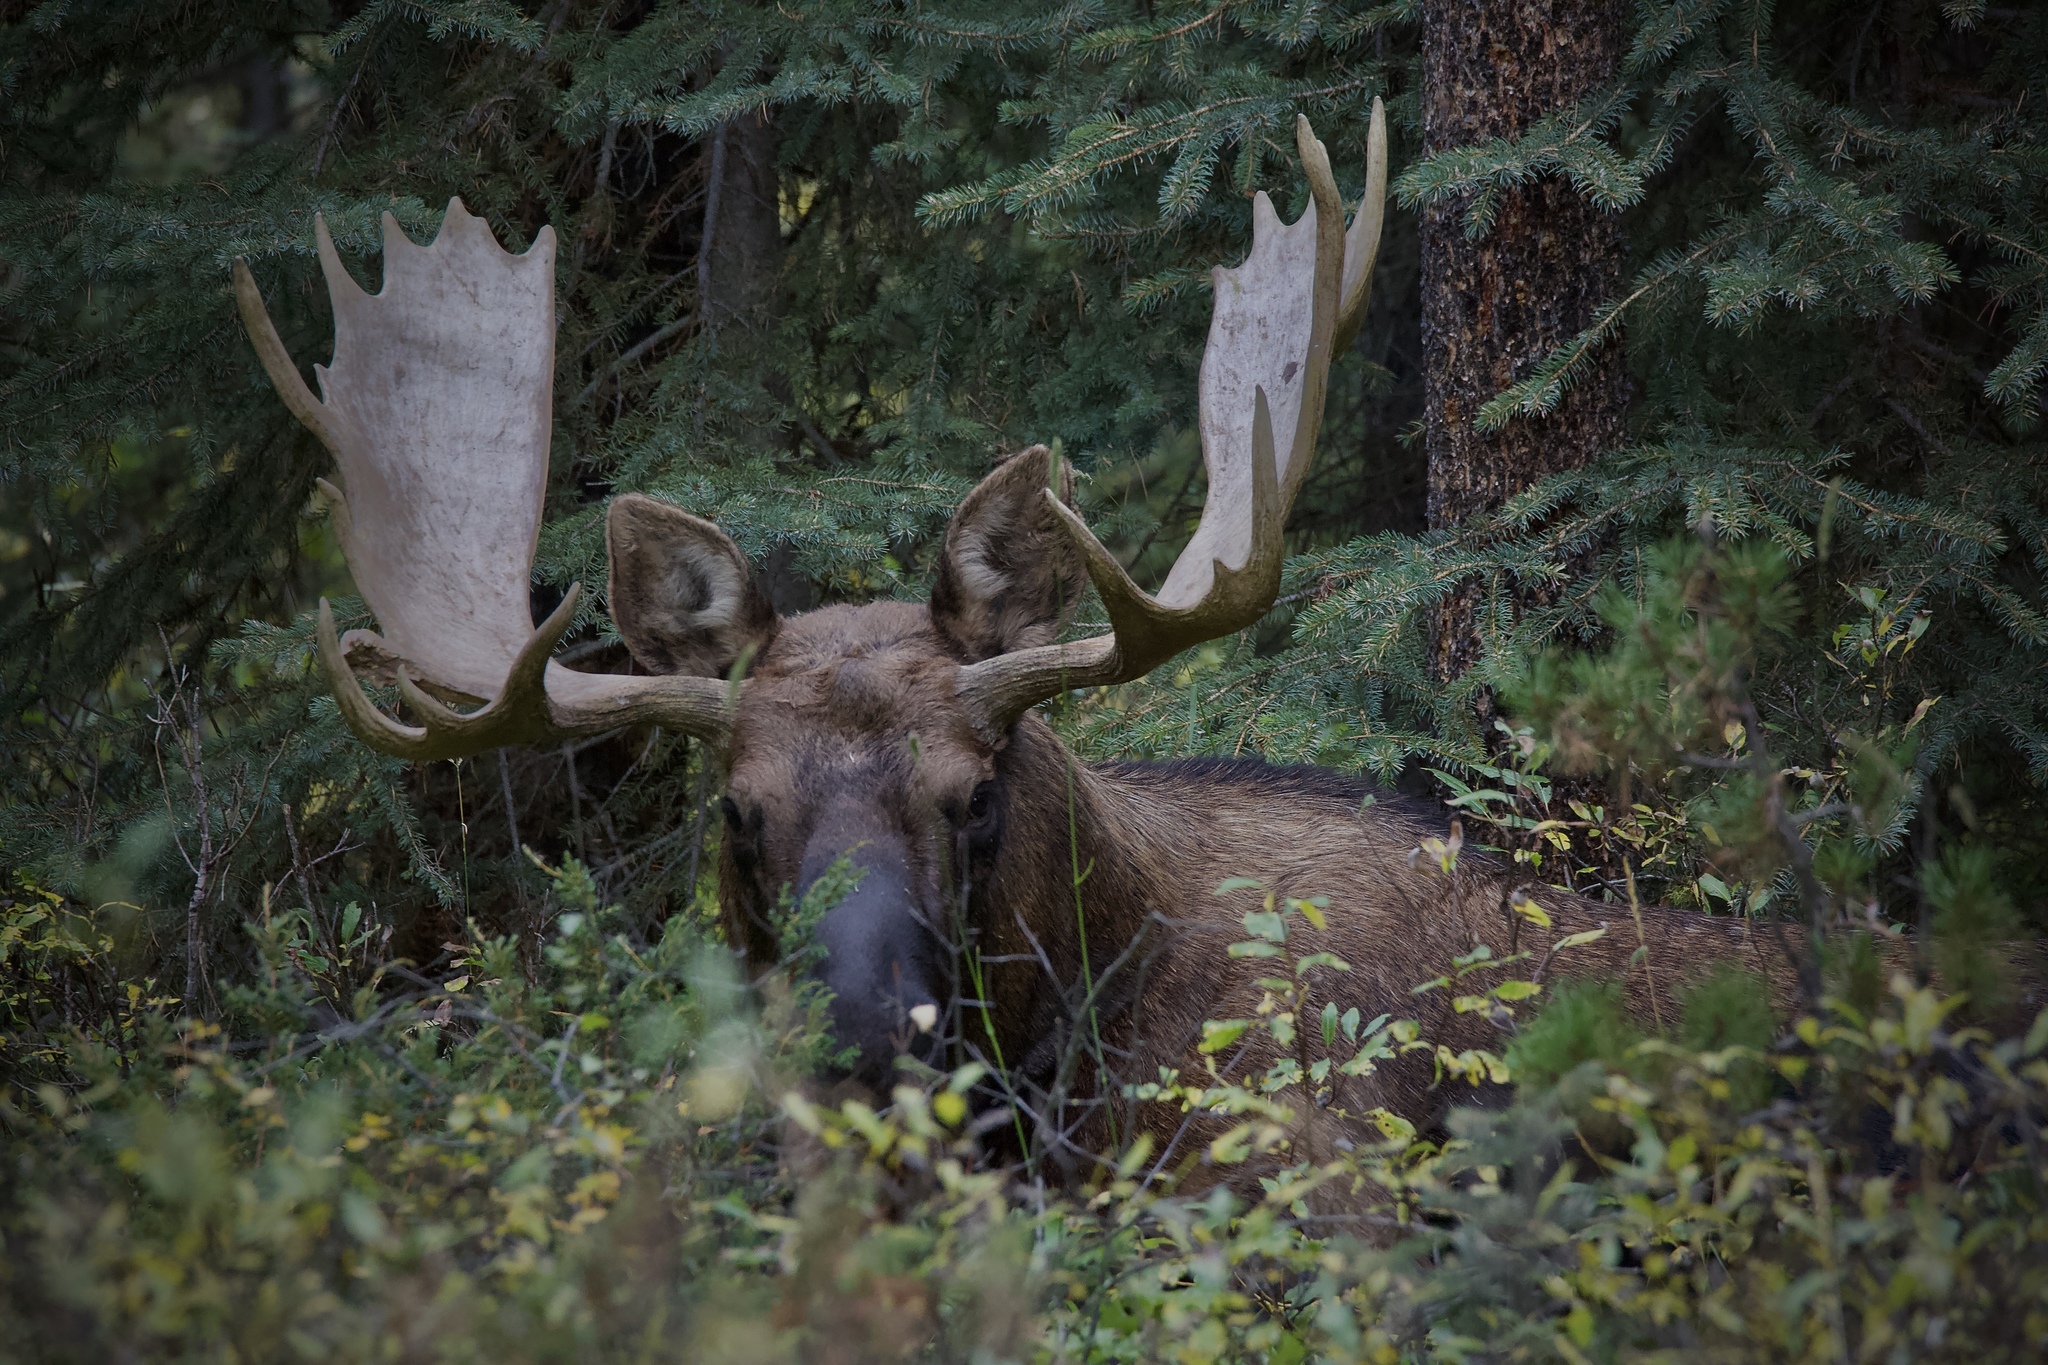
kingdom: Animalia
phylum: Chordata
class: Mammalia
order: Artiodactyla
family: Cervidae
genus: Alces
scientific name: Alces americanus
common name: Moose
